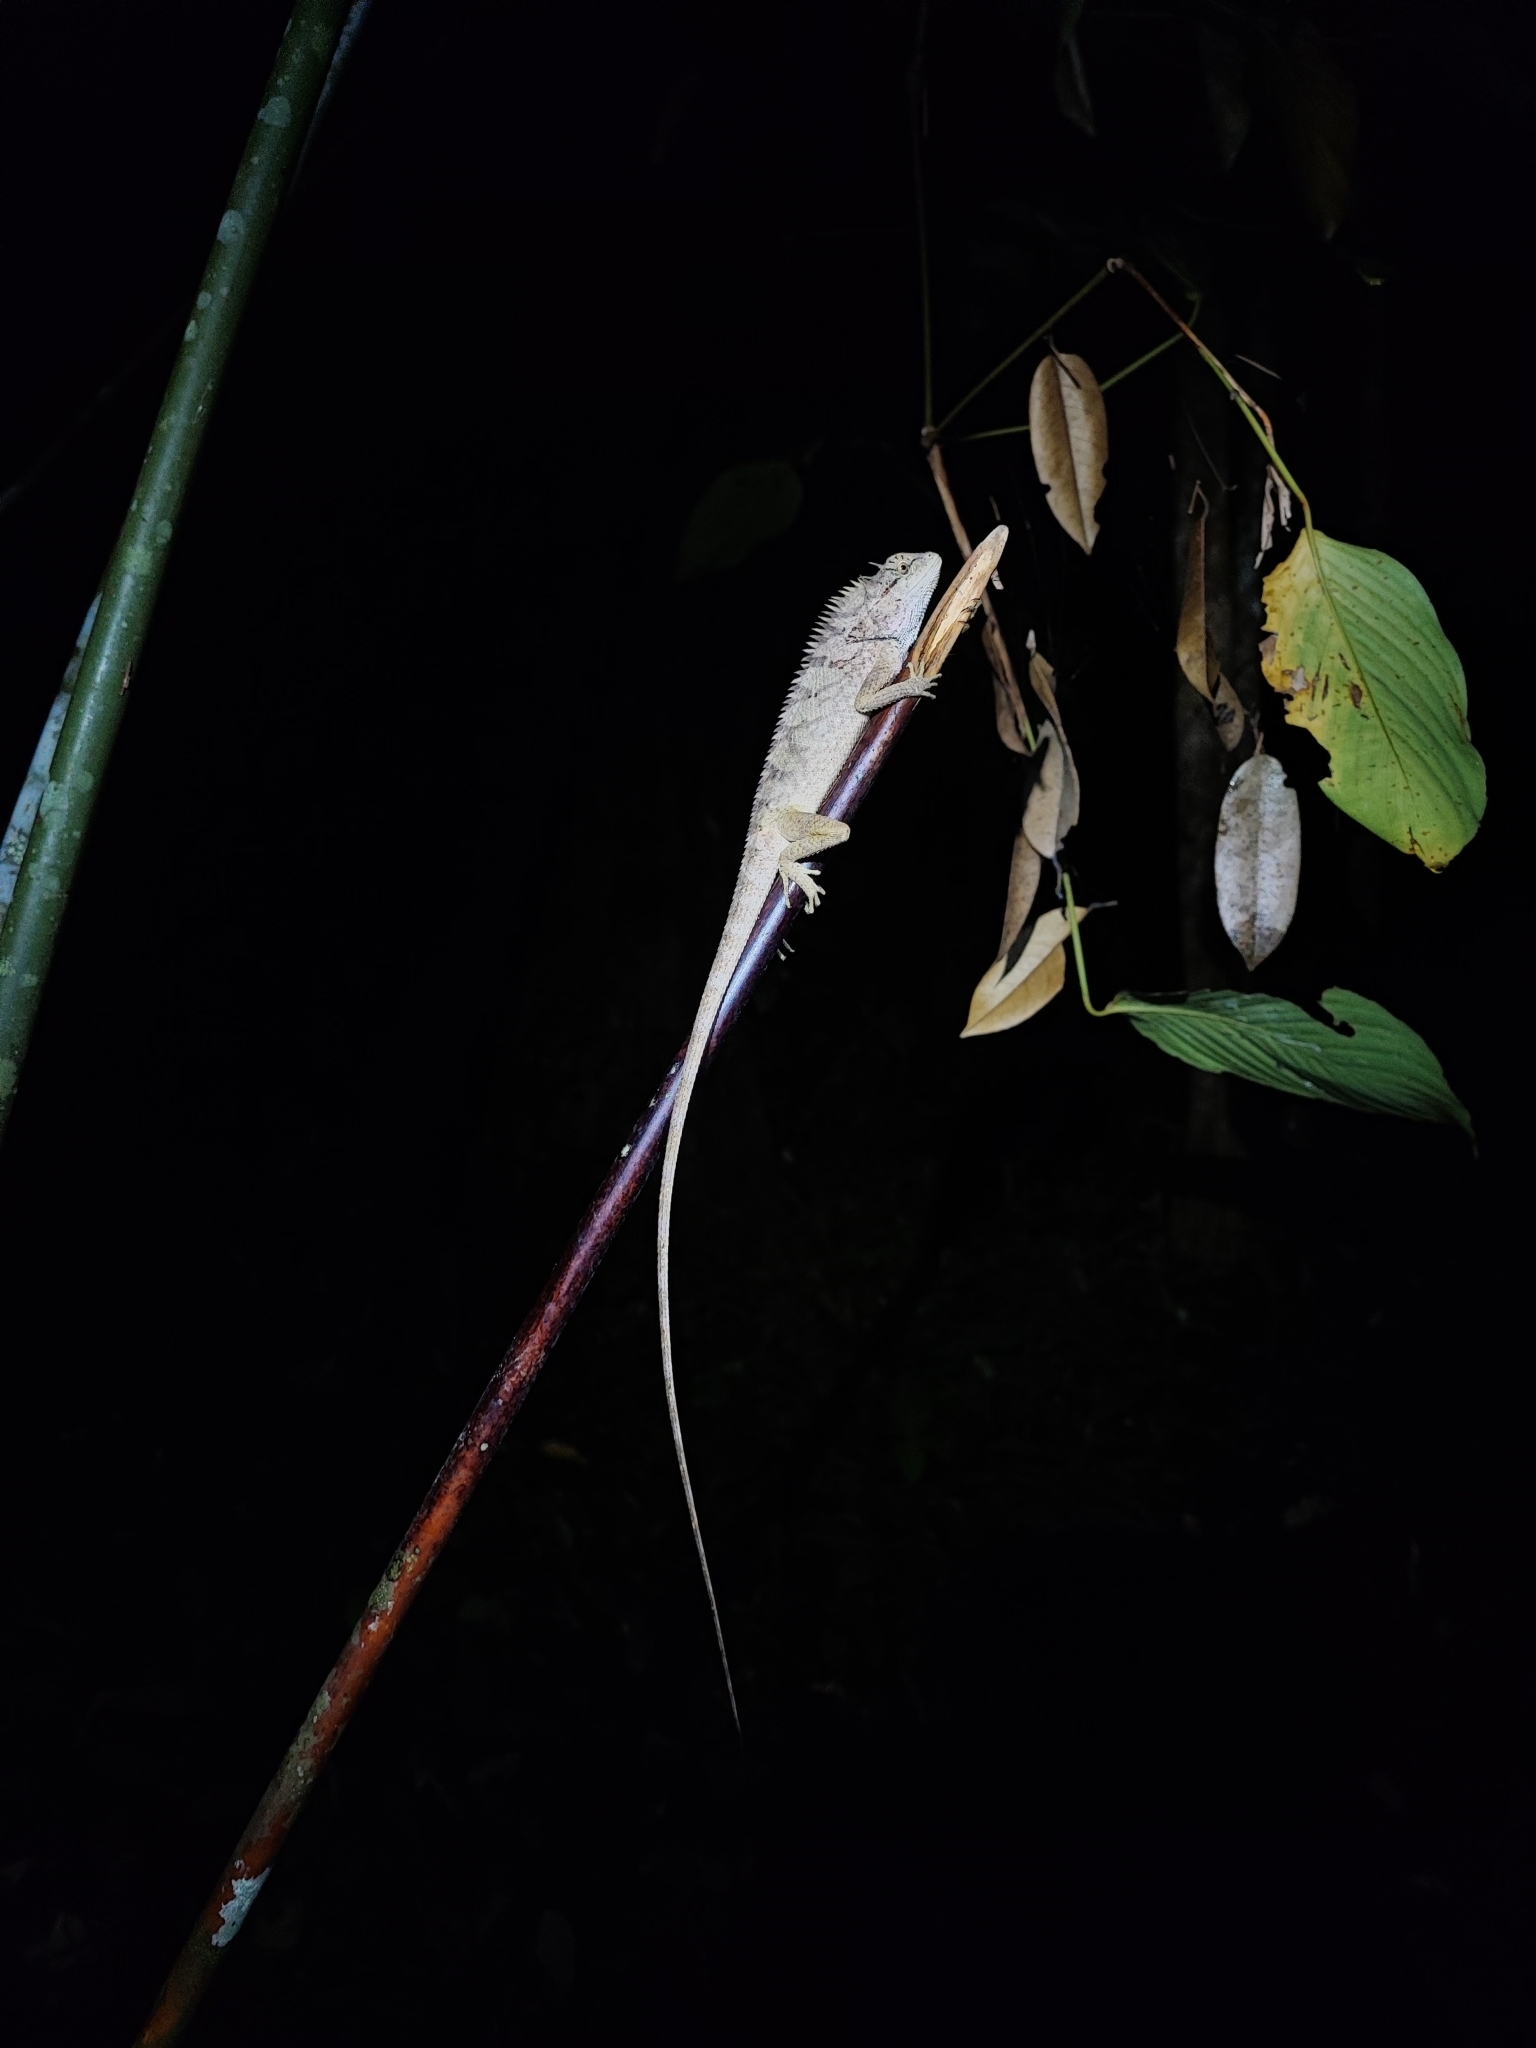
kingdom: Animalia
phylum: Chordata
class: Squamata
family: Agamidae
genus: Calotes
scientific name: Calotes emma
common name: Thailand bloodsucker
